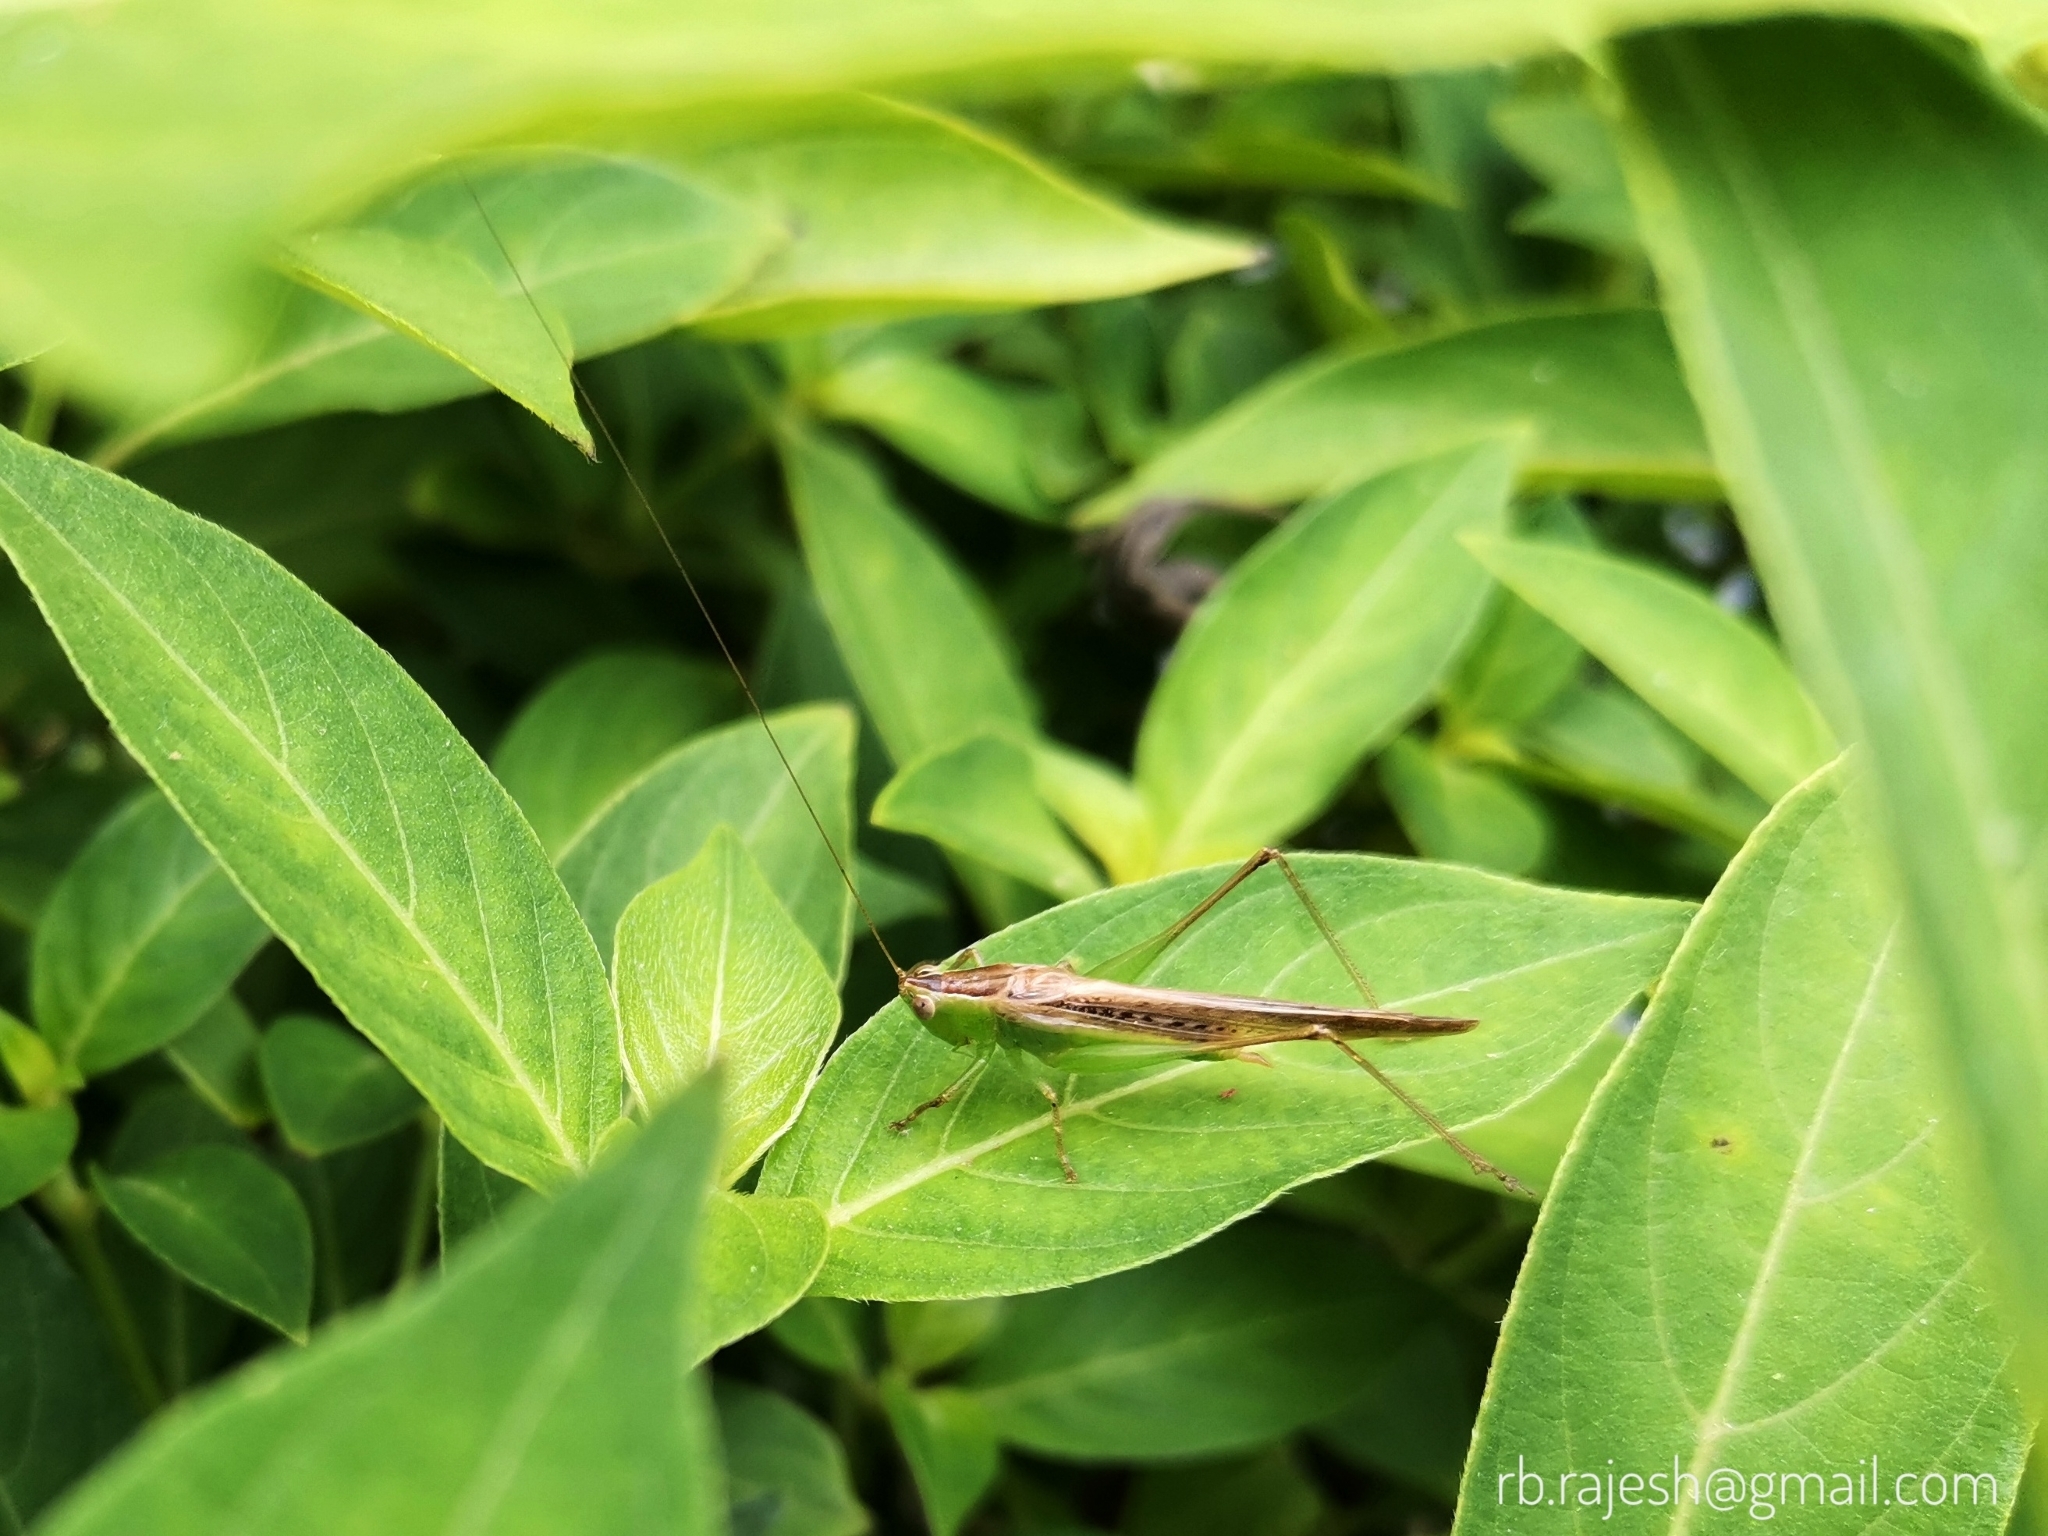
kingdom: Animalia
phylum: Arthropoda
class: Insecta
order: Orthoptera
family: Tettigoniidae
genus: Conocephalus
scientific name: Conocephalus maculatus
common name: Spotted meadow katydid
